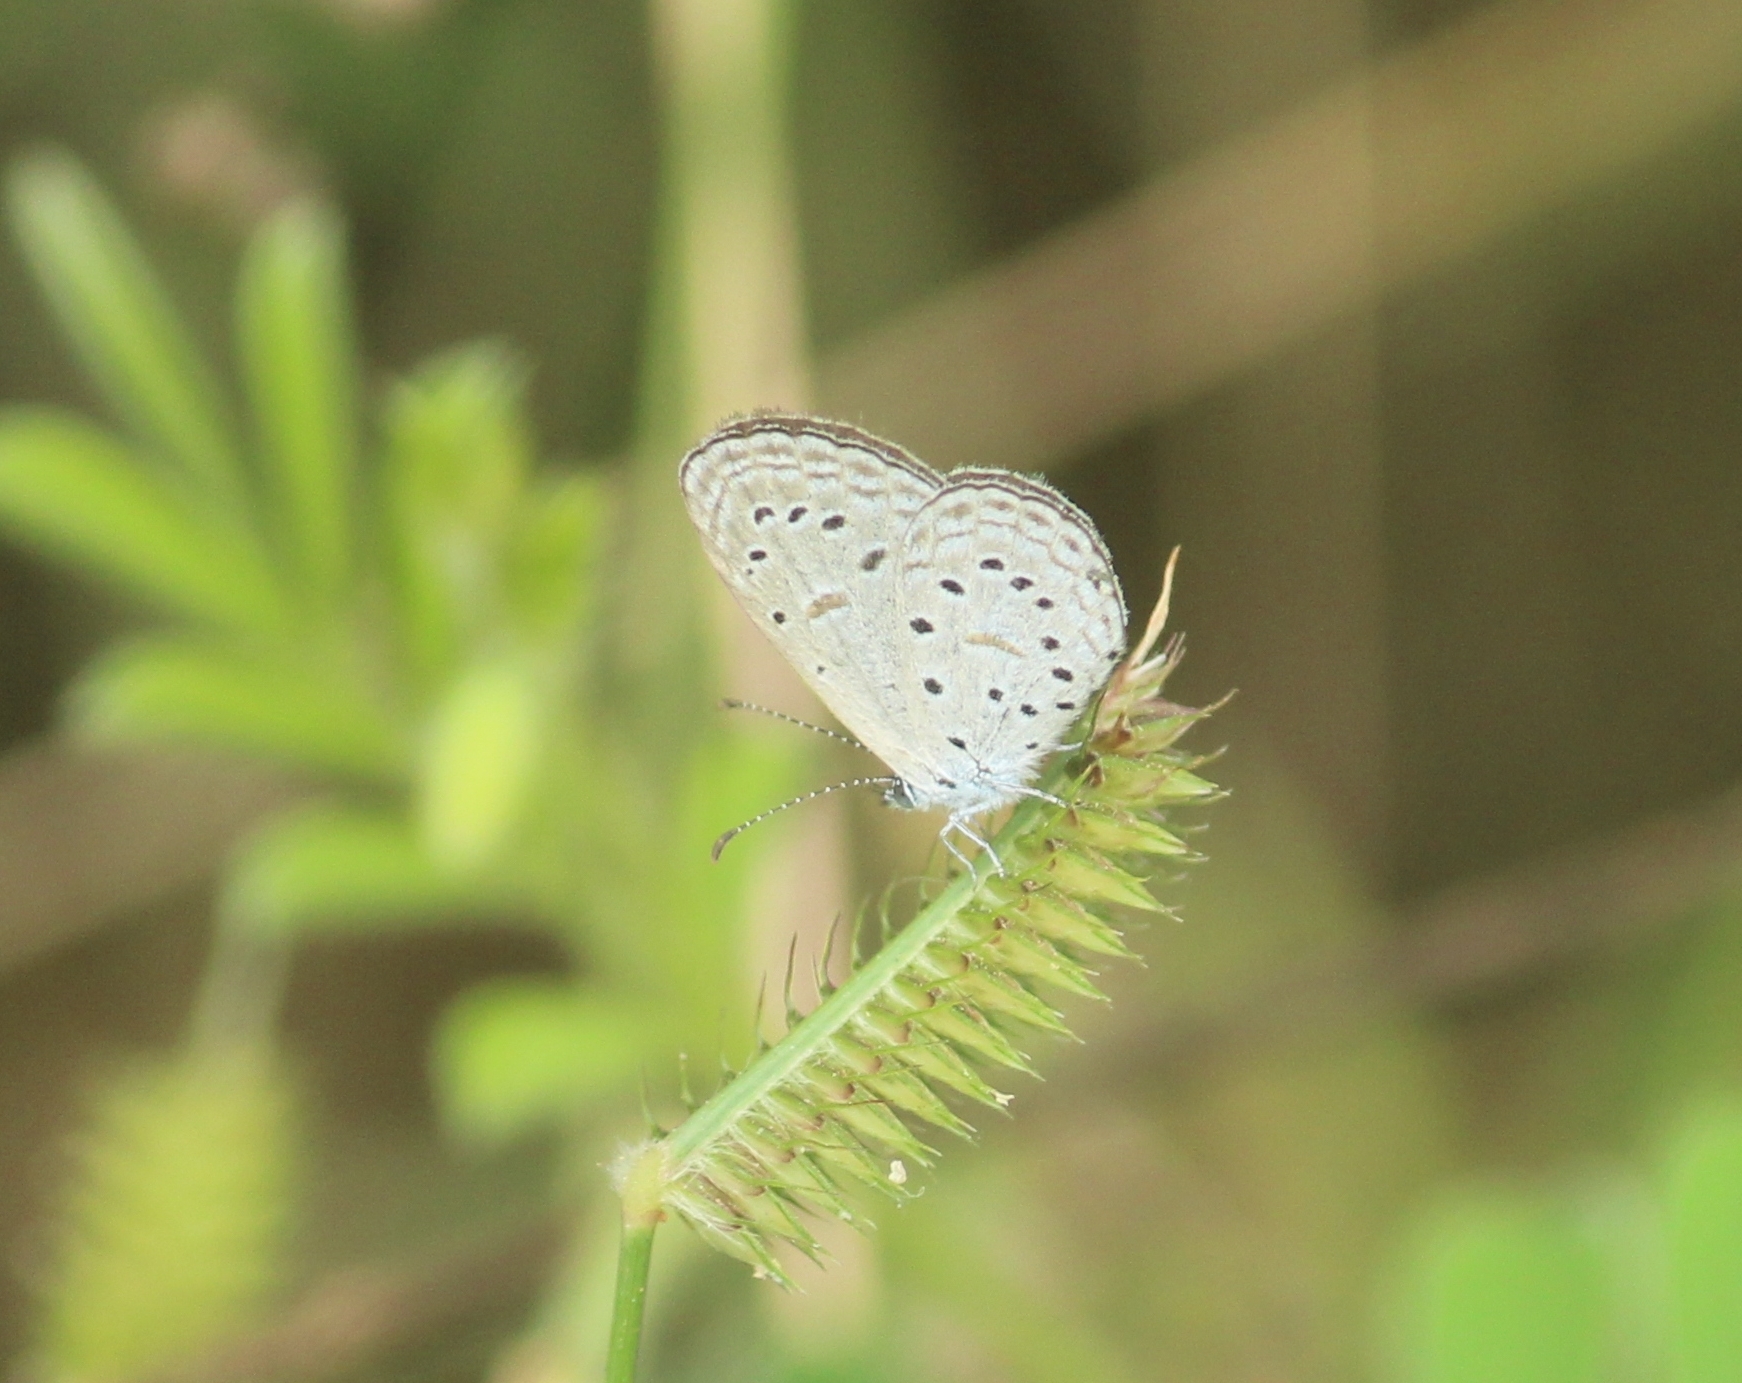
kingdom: Animalia
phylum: Arthropoda
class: Insecta
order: Lepidoptera
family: Lycaenidae
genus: Zizula
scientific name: Zizula hylax
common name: Gaika blue
